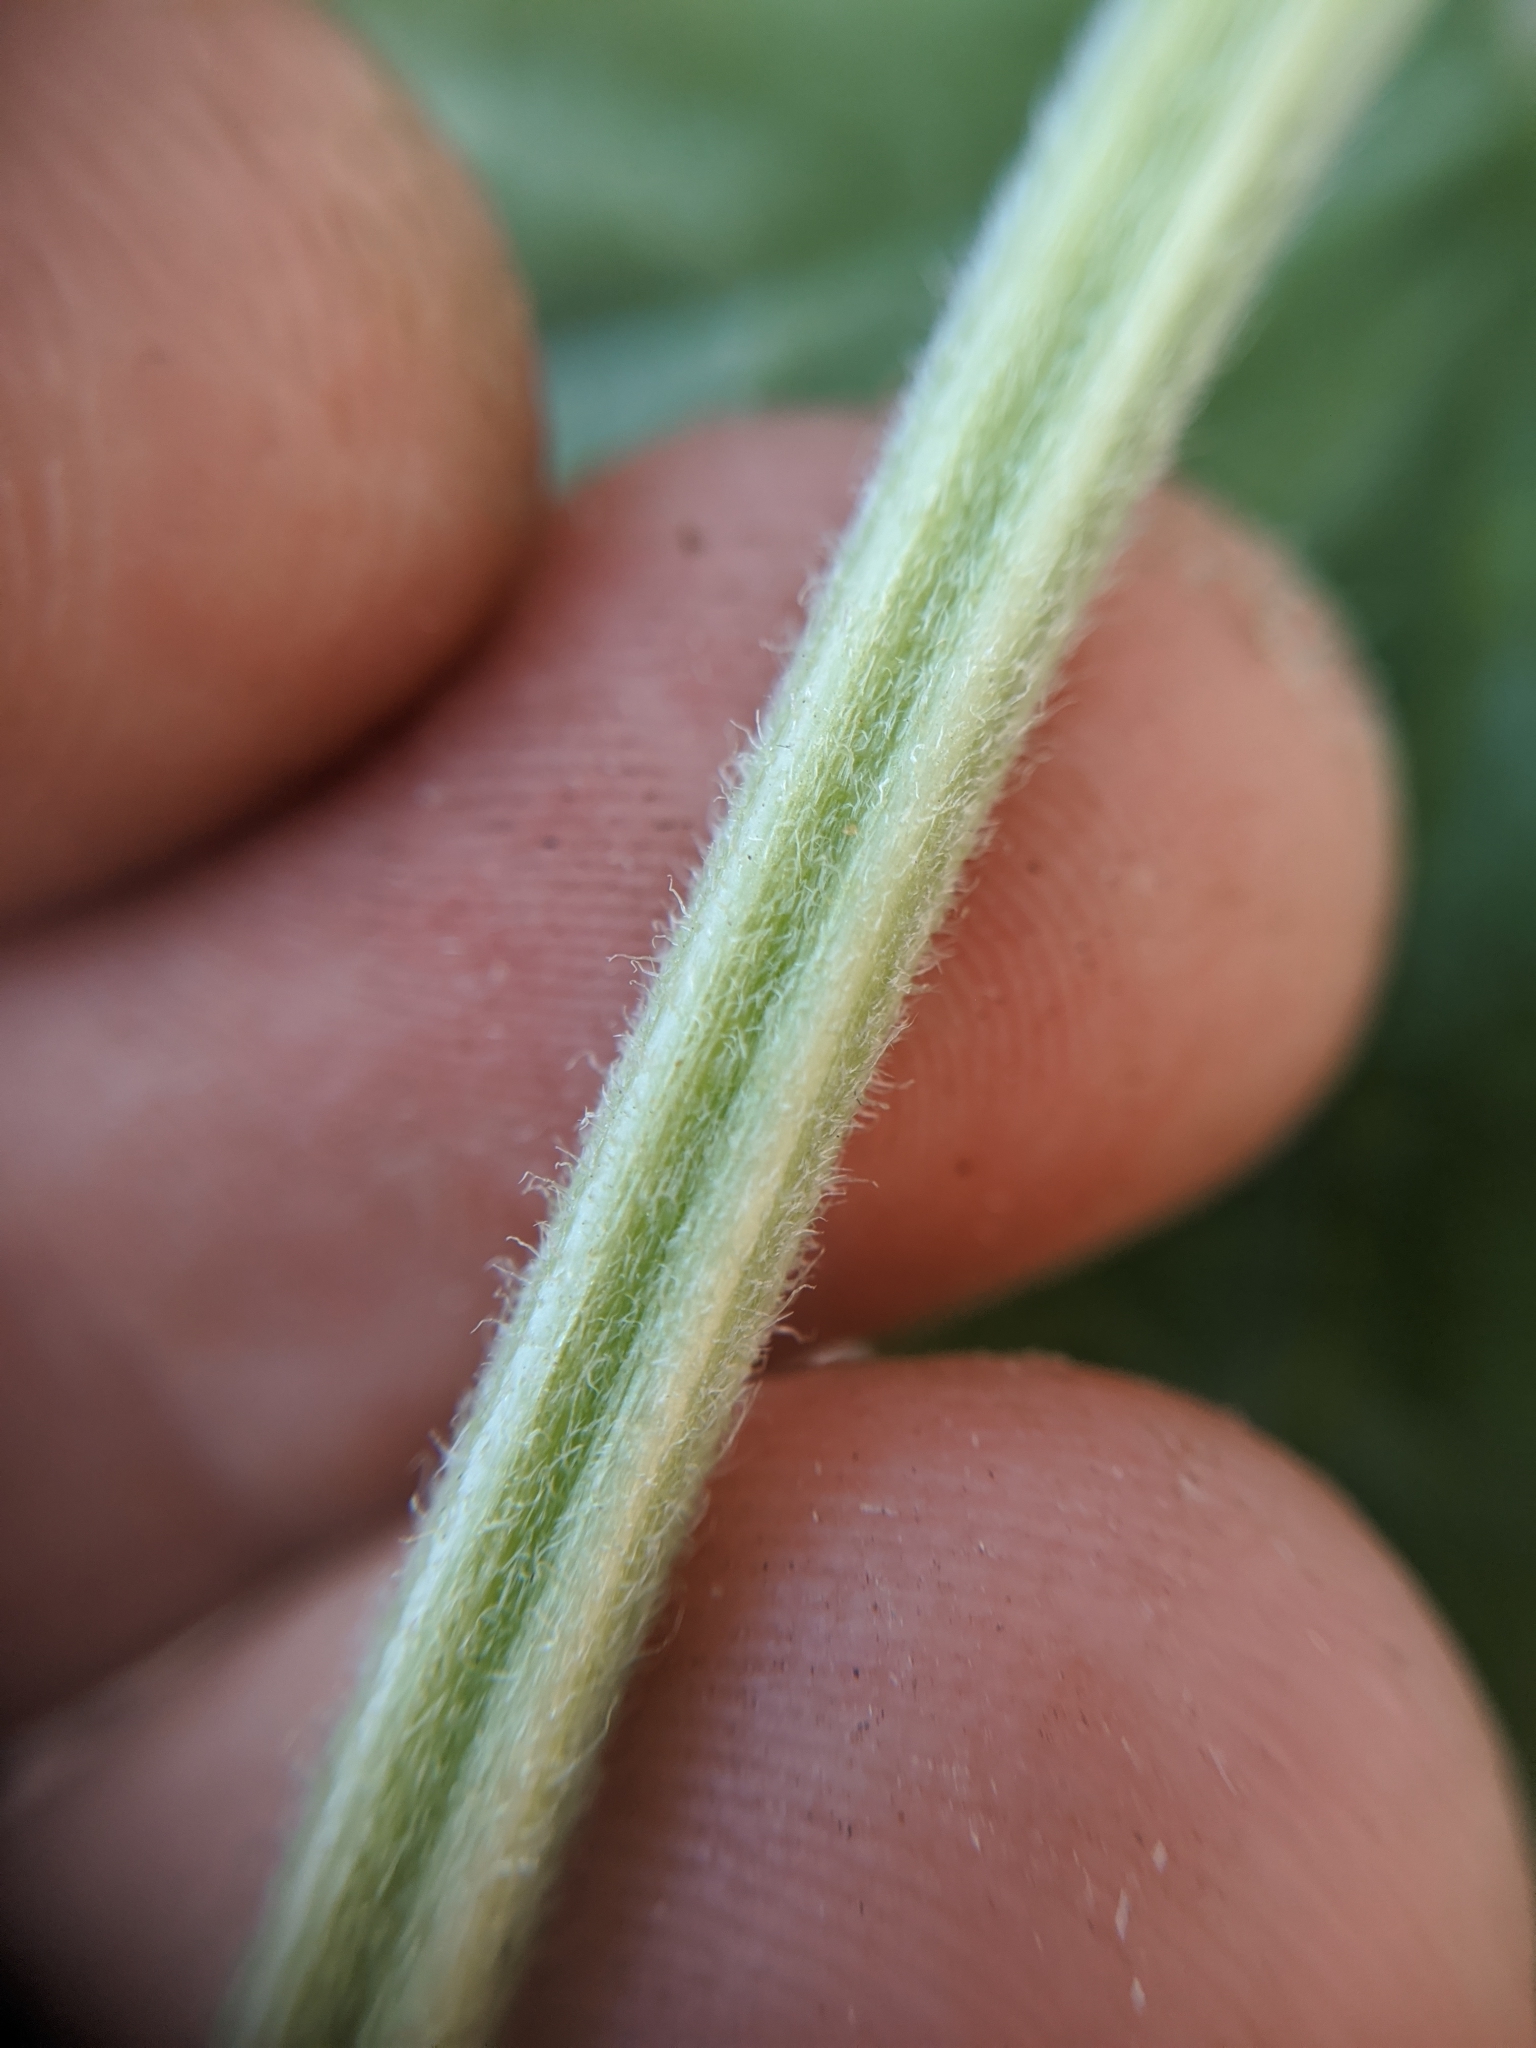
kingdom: Plantae
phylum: Tracheophyta
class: Magnoliopsida
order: Cucurbitales
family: Cucurbitaceae
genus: Cucurbita
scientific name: Cucurbita palmata
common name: Coyote-melon
